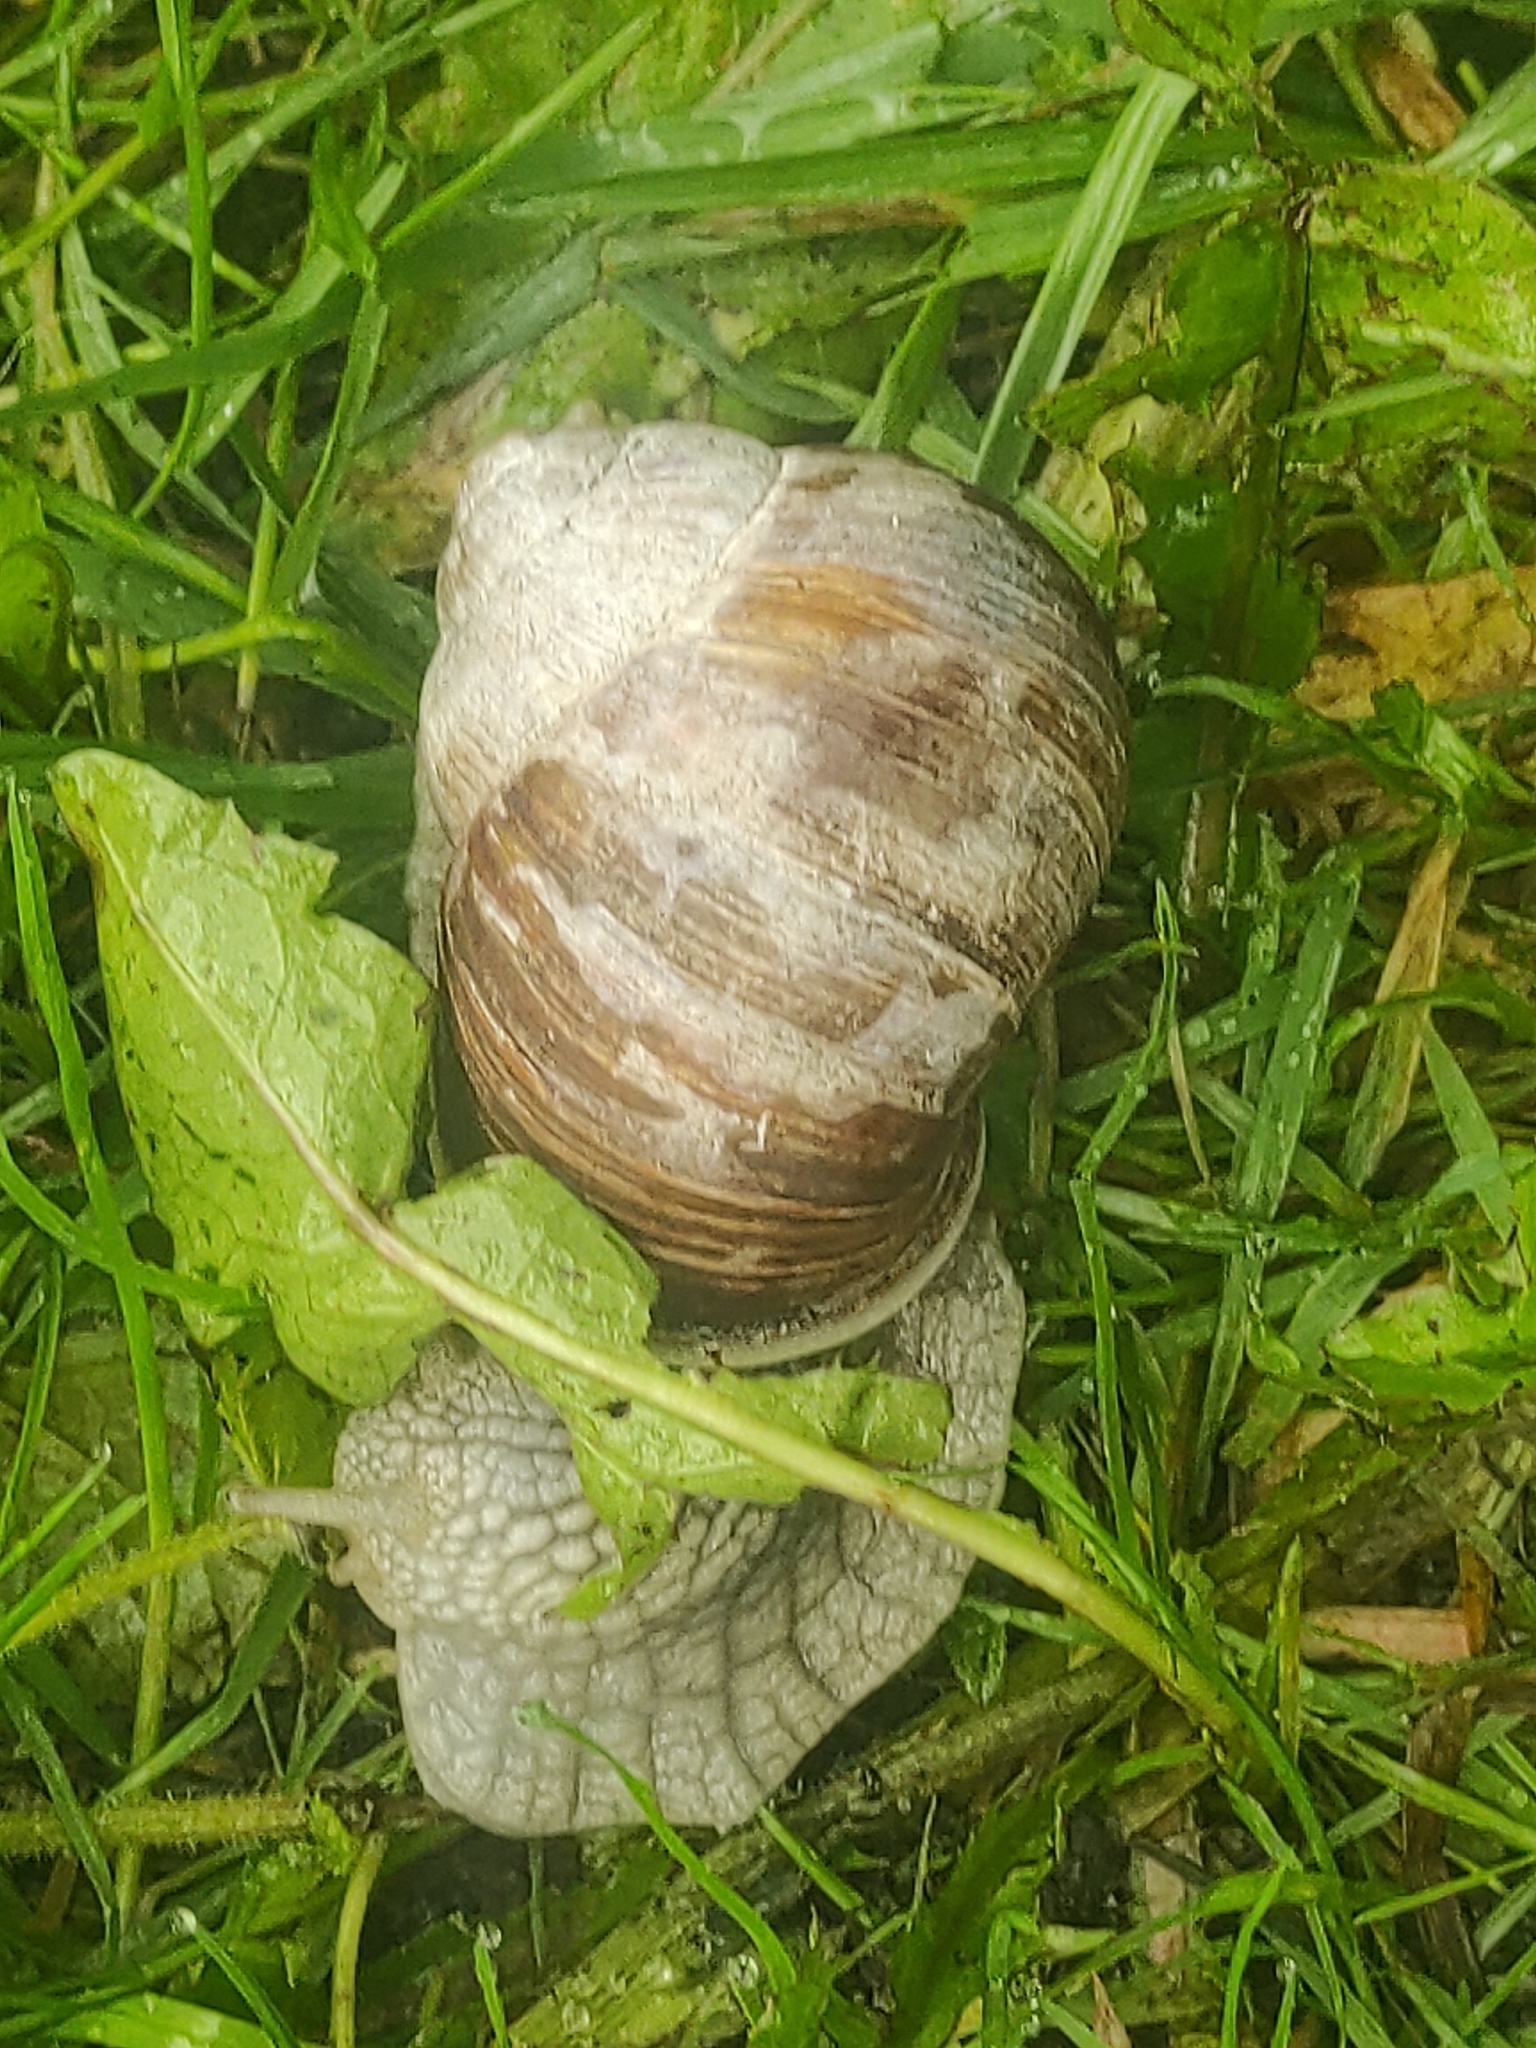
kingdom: Animalia
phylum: Mollusca
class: Gastropoda
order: Stylommatophora
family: Helicidae
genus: Helix
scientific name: Helix pomatia
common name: Roman snail
